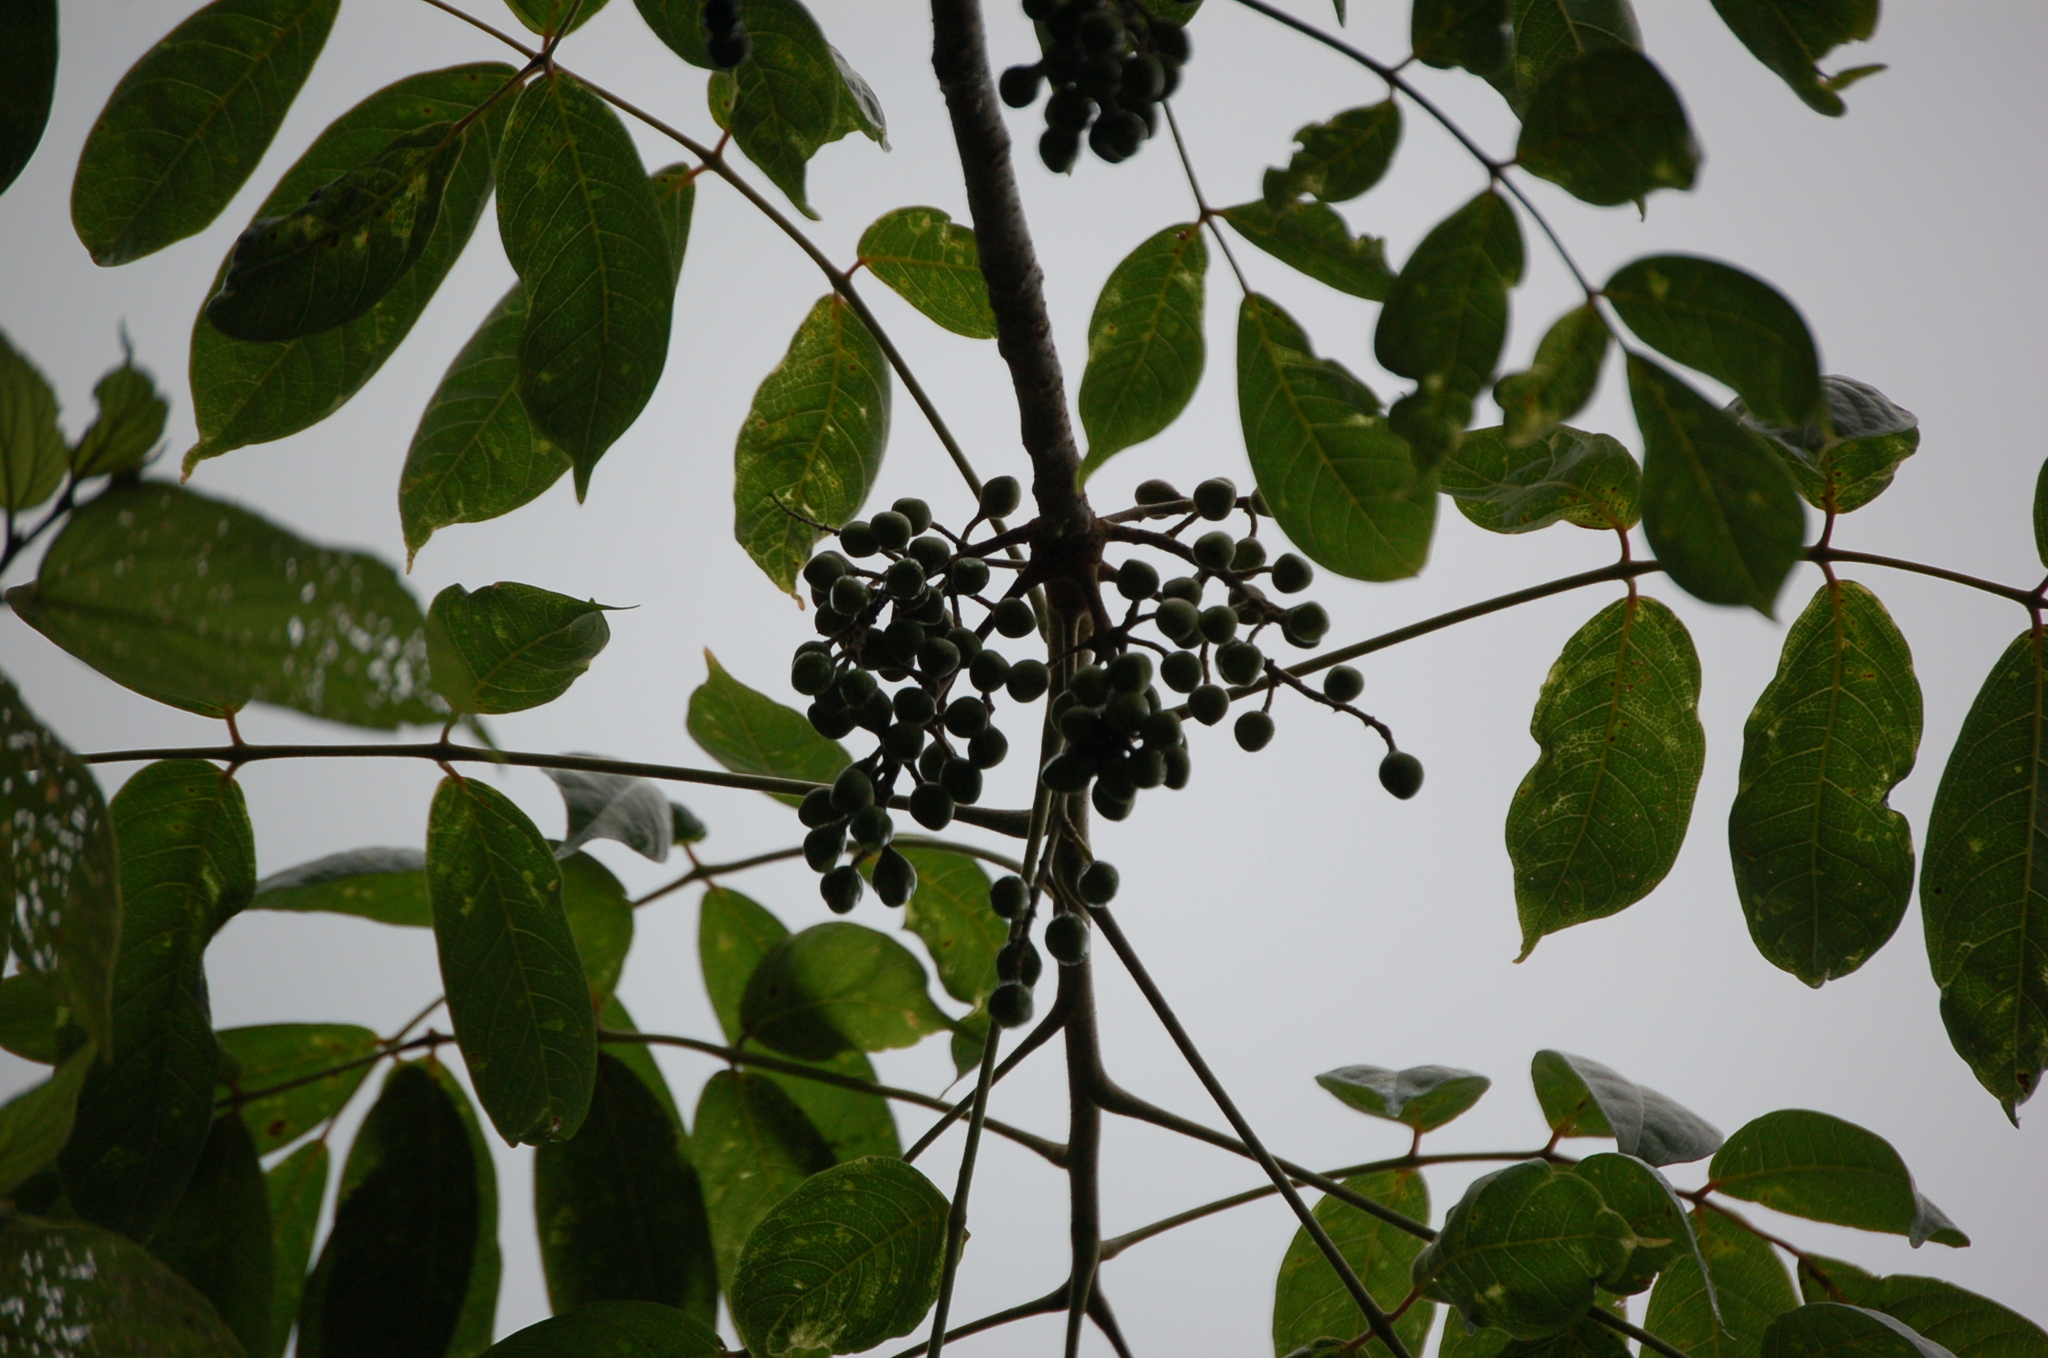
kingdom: Plantae
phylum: Tracheophyta
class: Magnoliopsida
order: Sapindales
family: Burseraceae
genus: Bursera
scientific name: Bursera simaruba
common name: Turpentine tree
